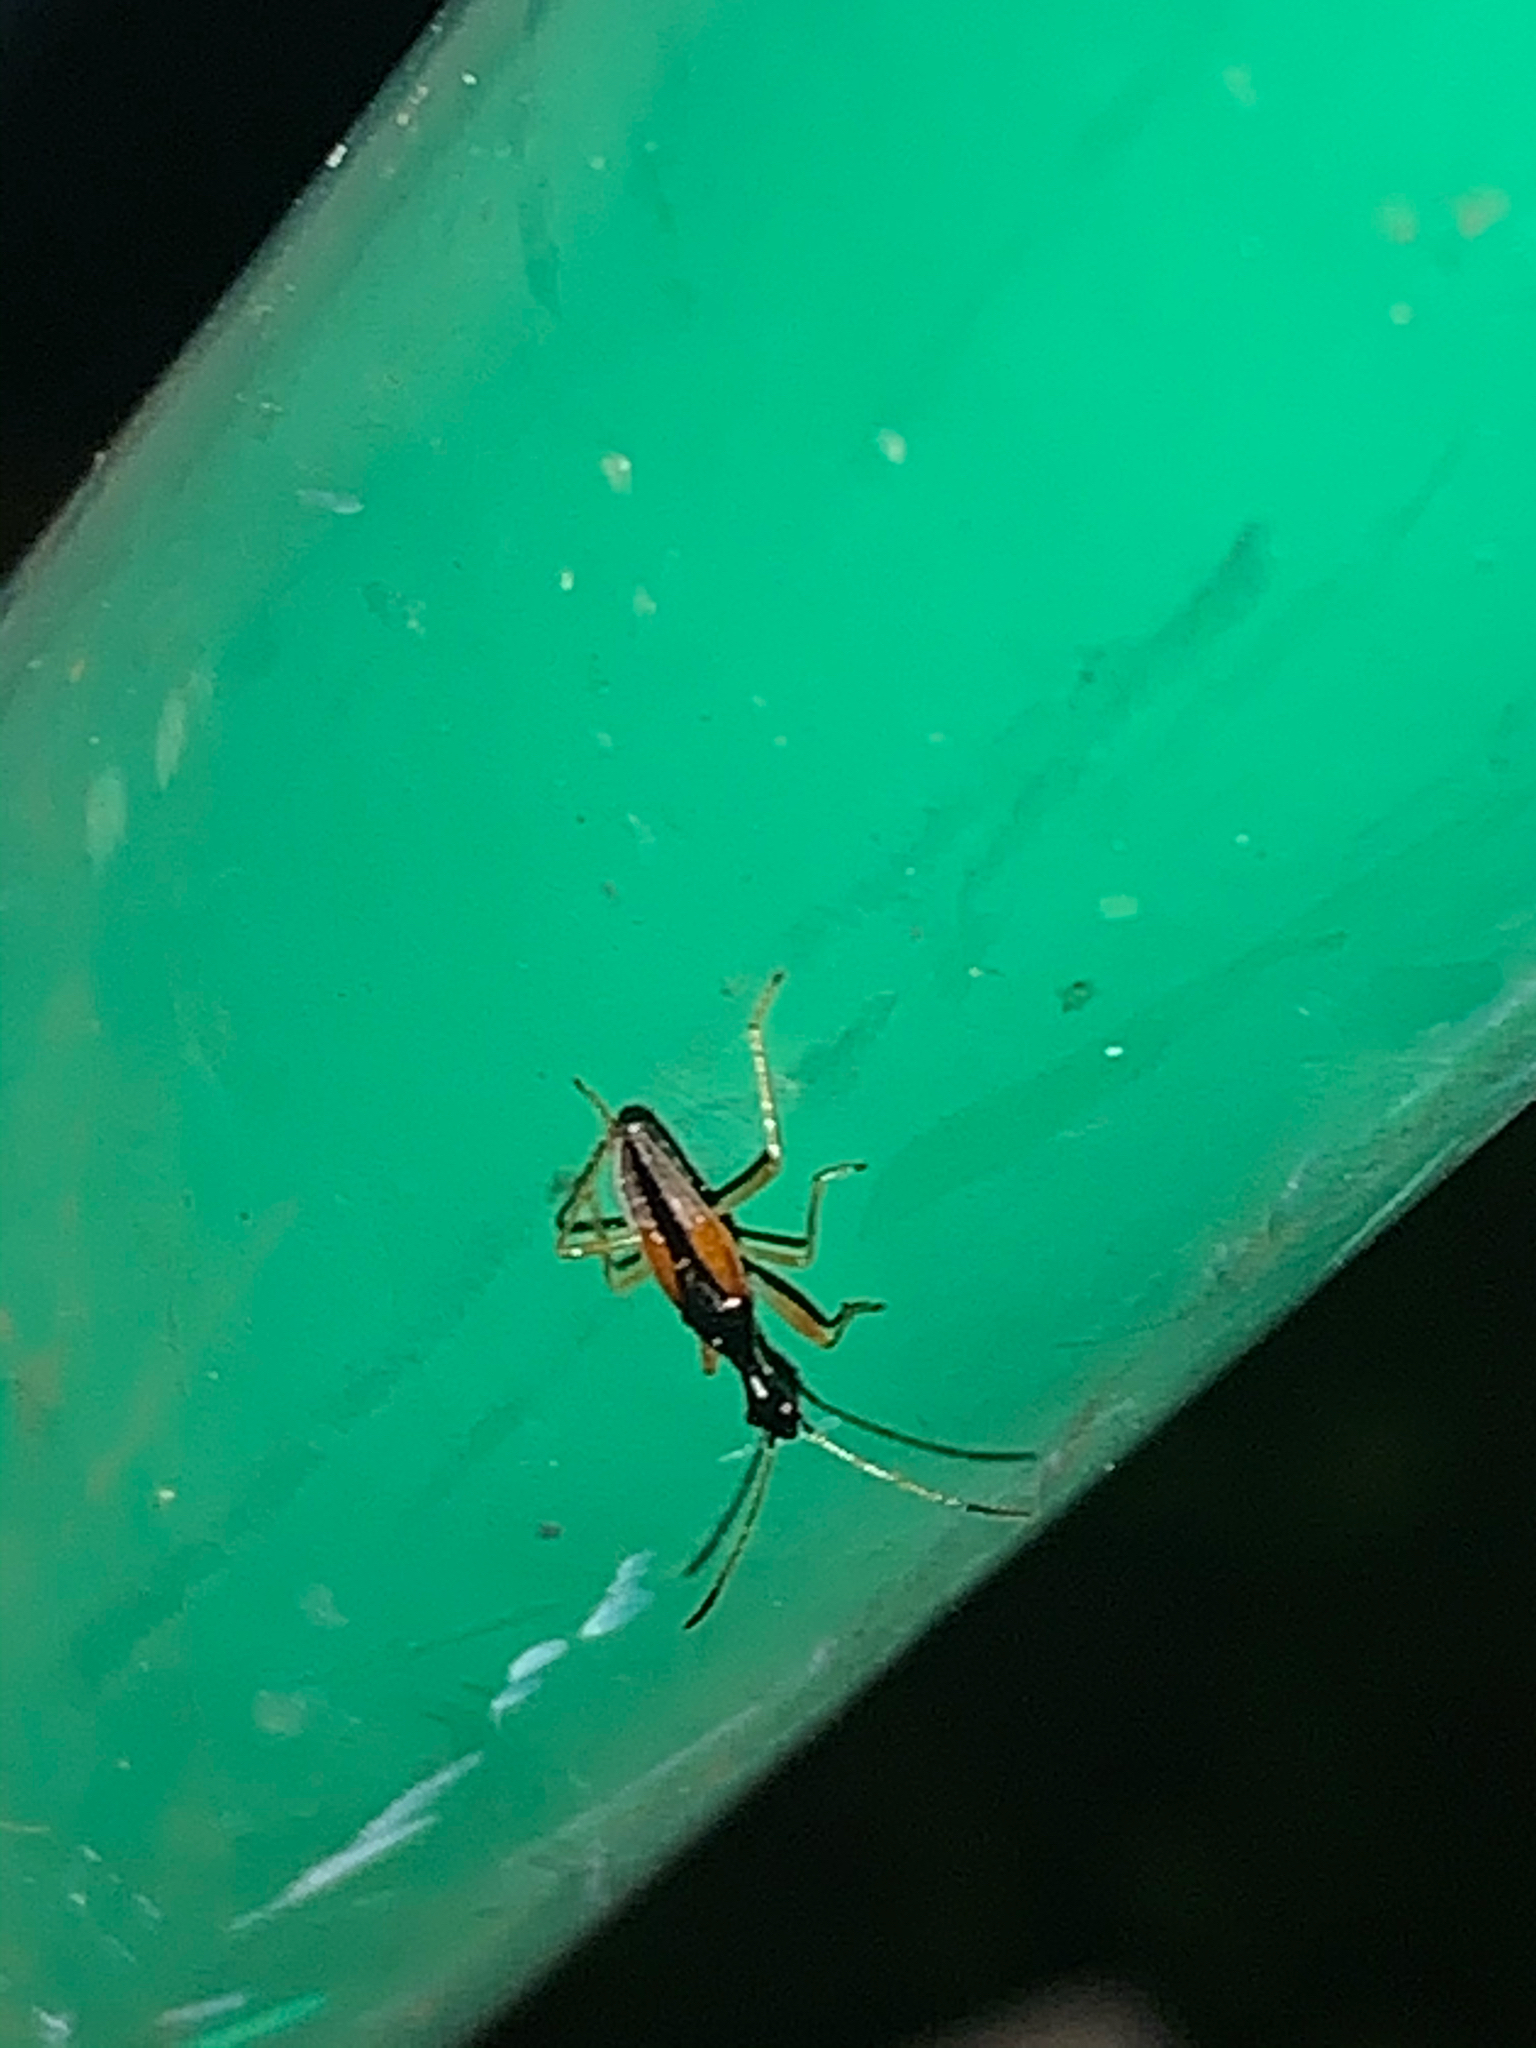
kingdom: Animalia
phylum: Arthropoda
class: Insecta
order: Hemiptera
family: Rhyparochromidae
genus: Myodocha
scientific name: Myodocha serripes
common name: Long-necked seed bug
